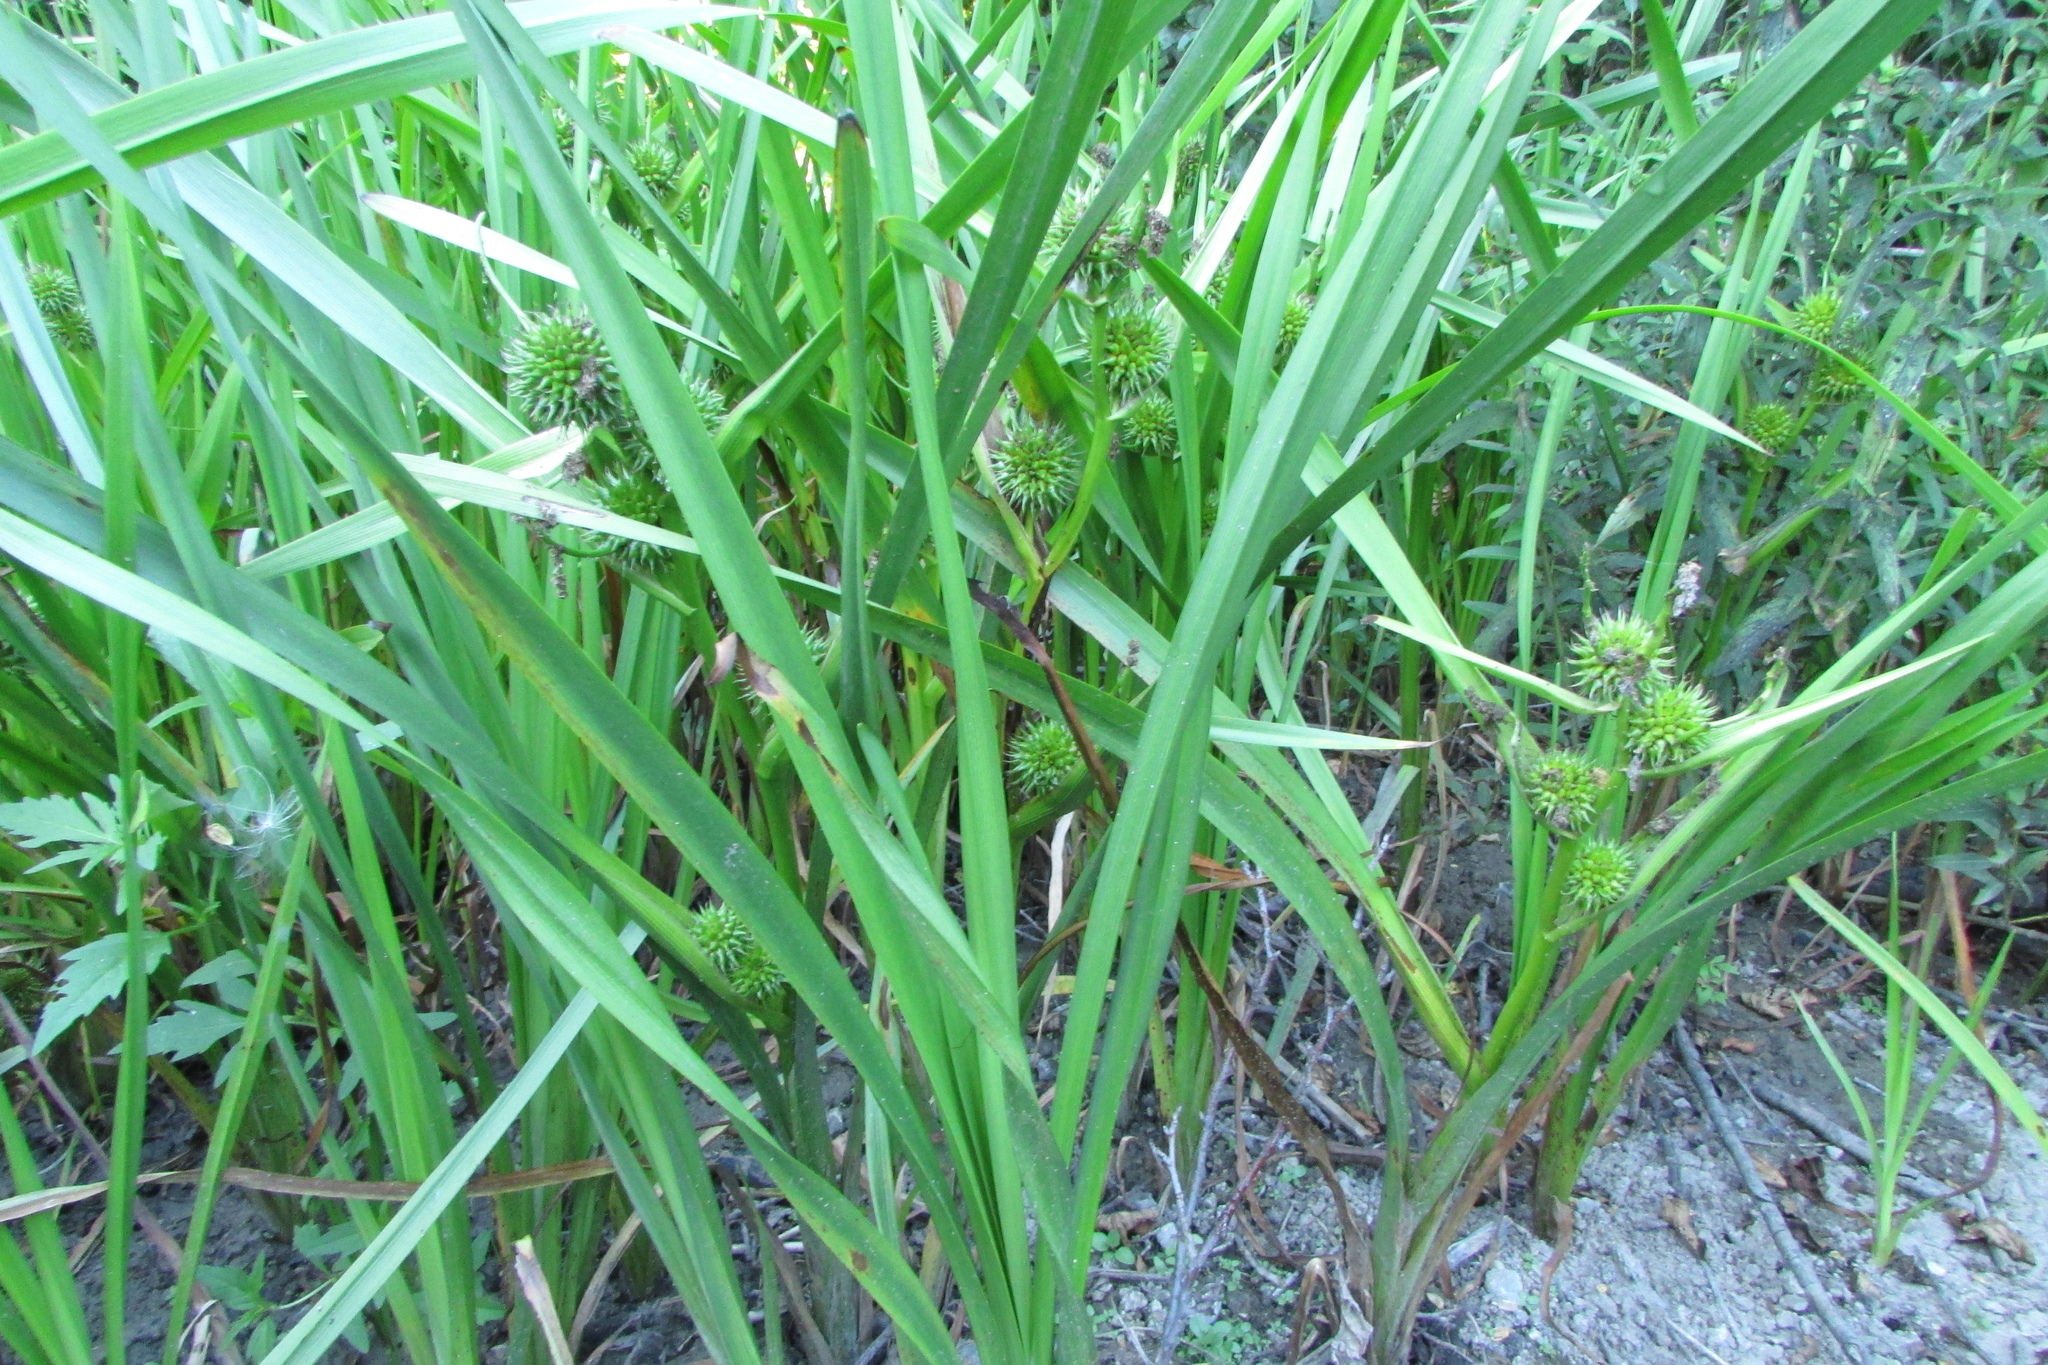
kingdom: Plantae
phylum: Tracheophyta
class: Liliopsida
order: Poales
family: Typhaceae
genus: Sparganium
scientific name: Sparganium erectum
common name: Branched bur-reed
